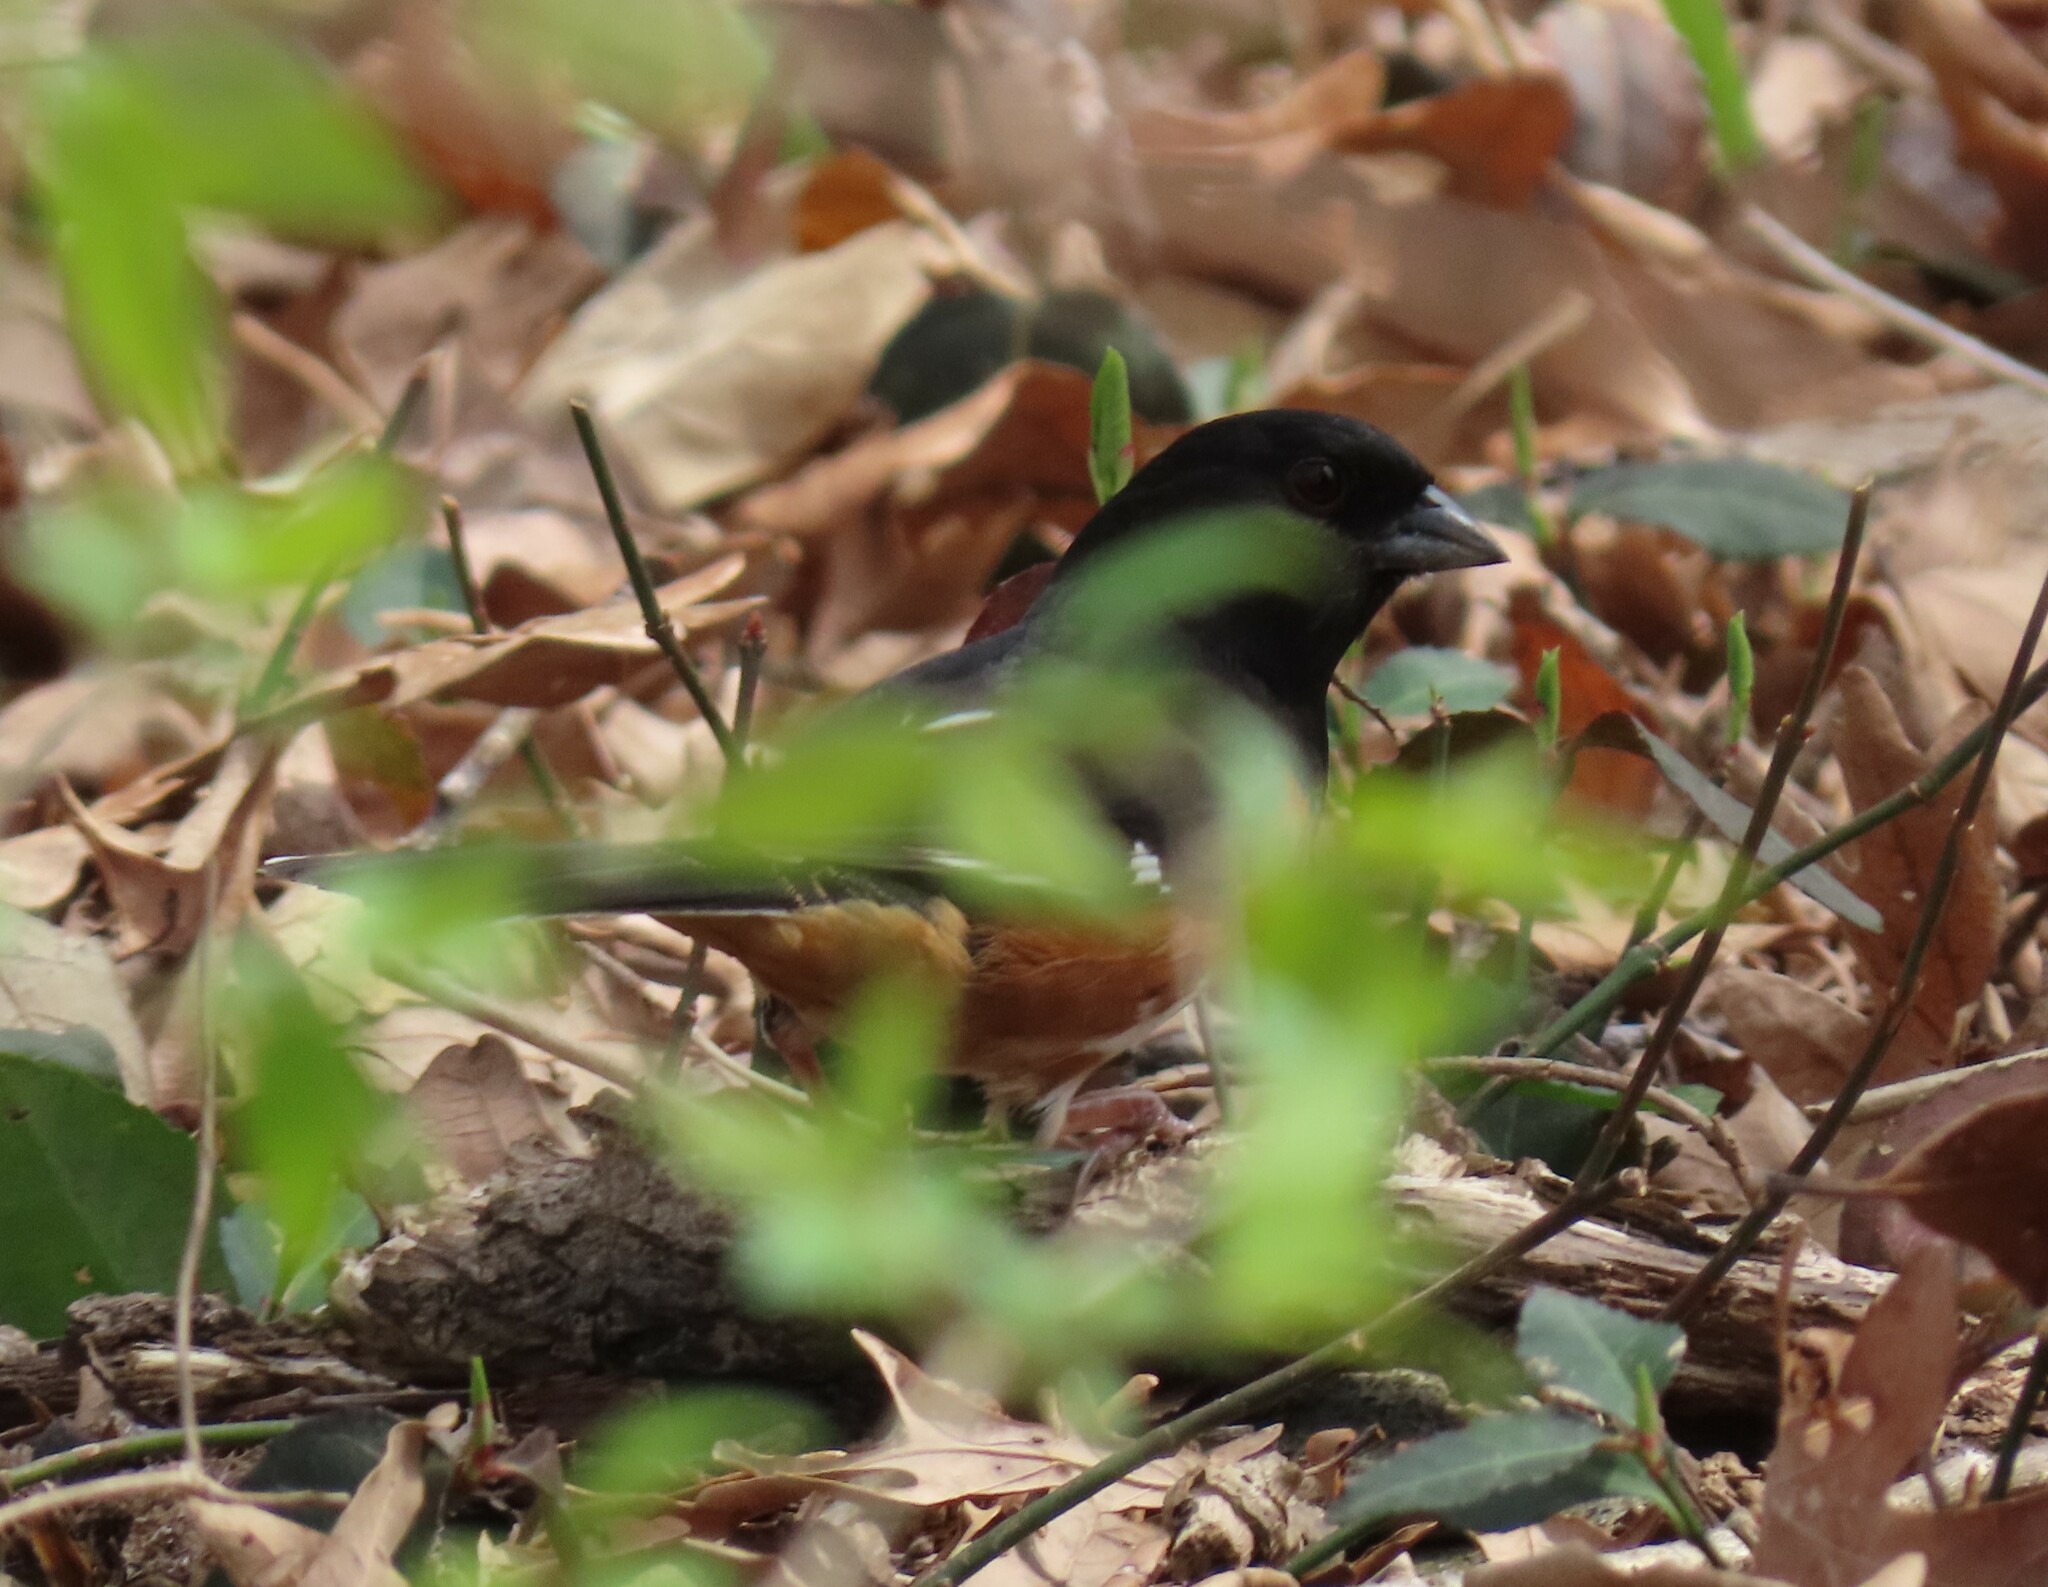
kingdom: Animalia
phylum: Chordata
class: Aves
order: Passeriformes
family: Passerellidae
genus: Pipilo
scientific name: Pipilo erythrophthalmus
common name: Eastern towhee
